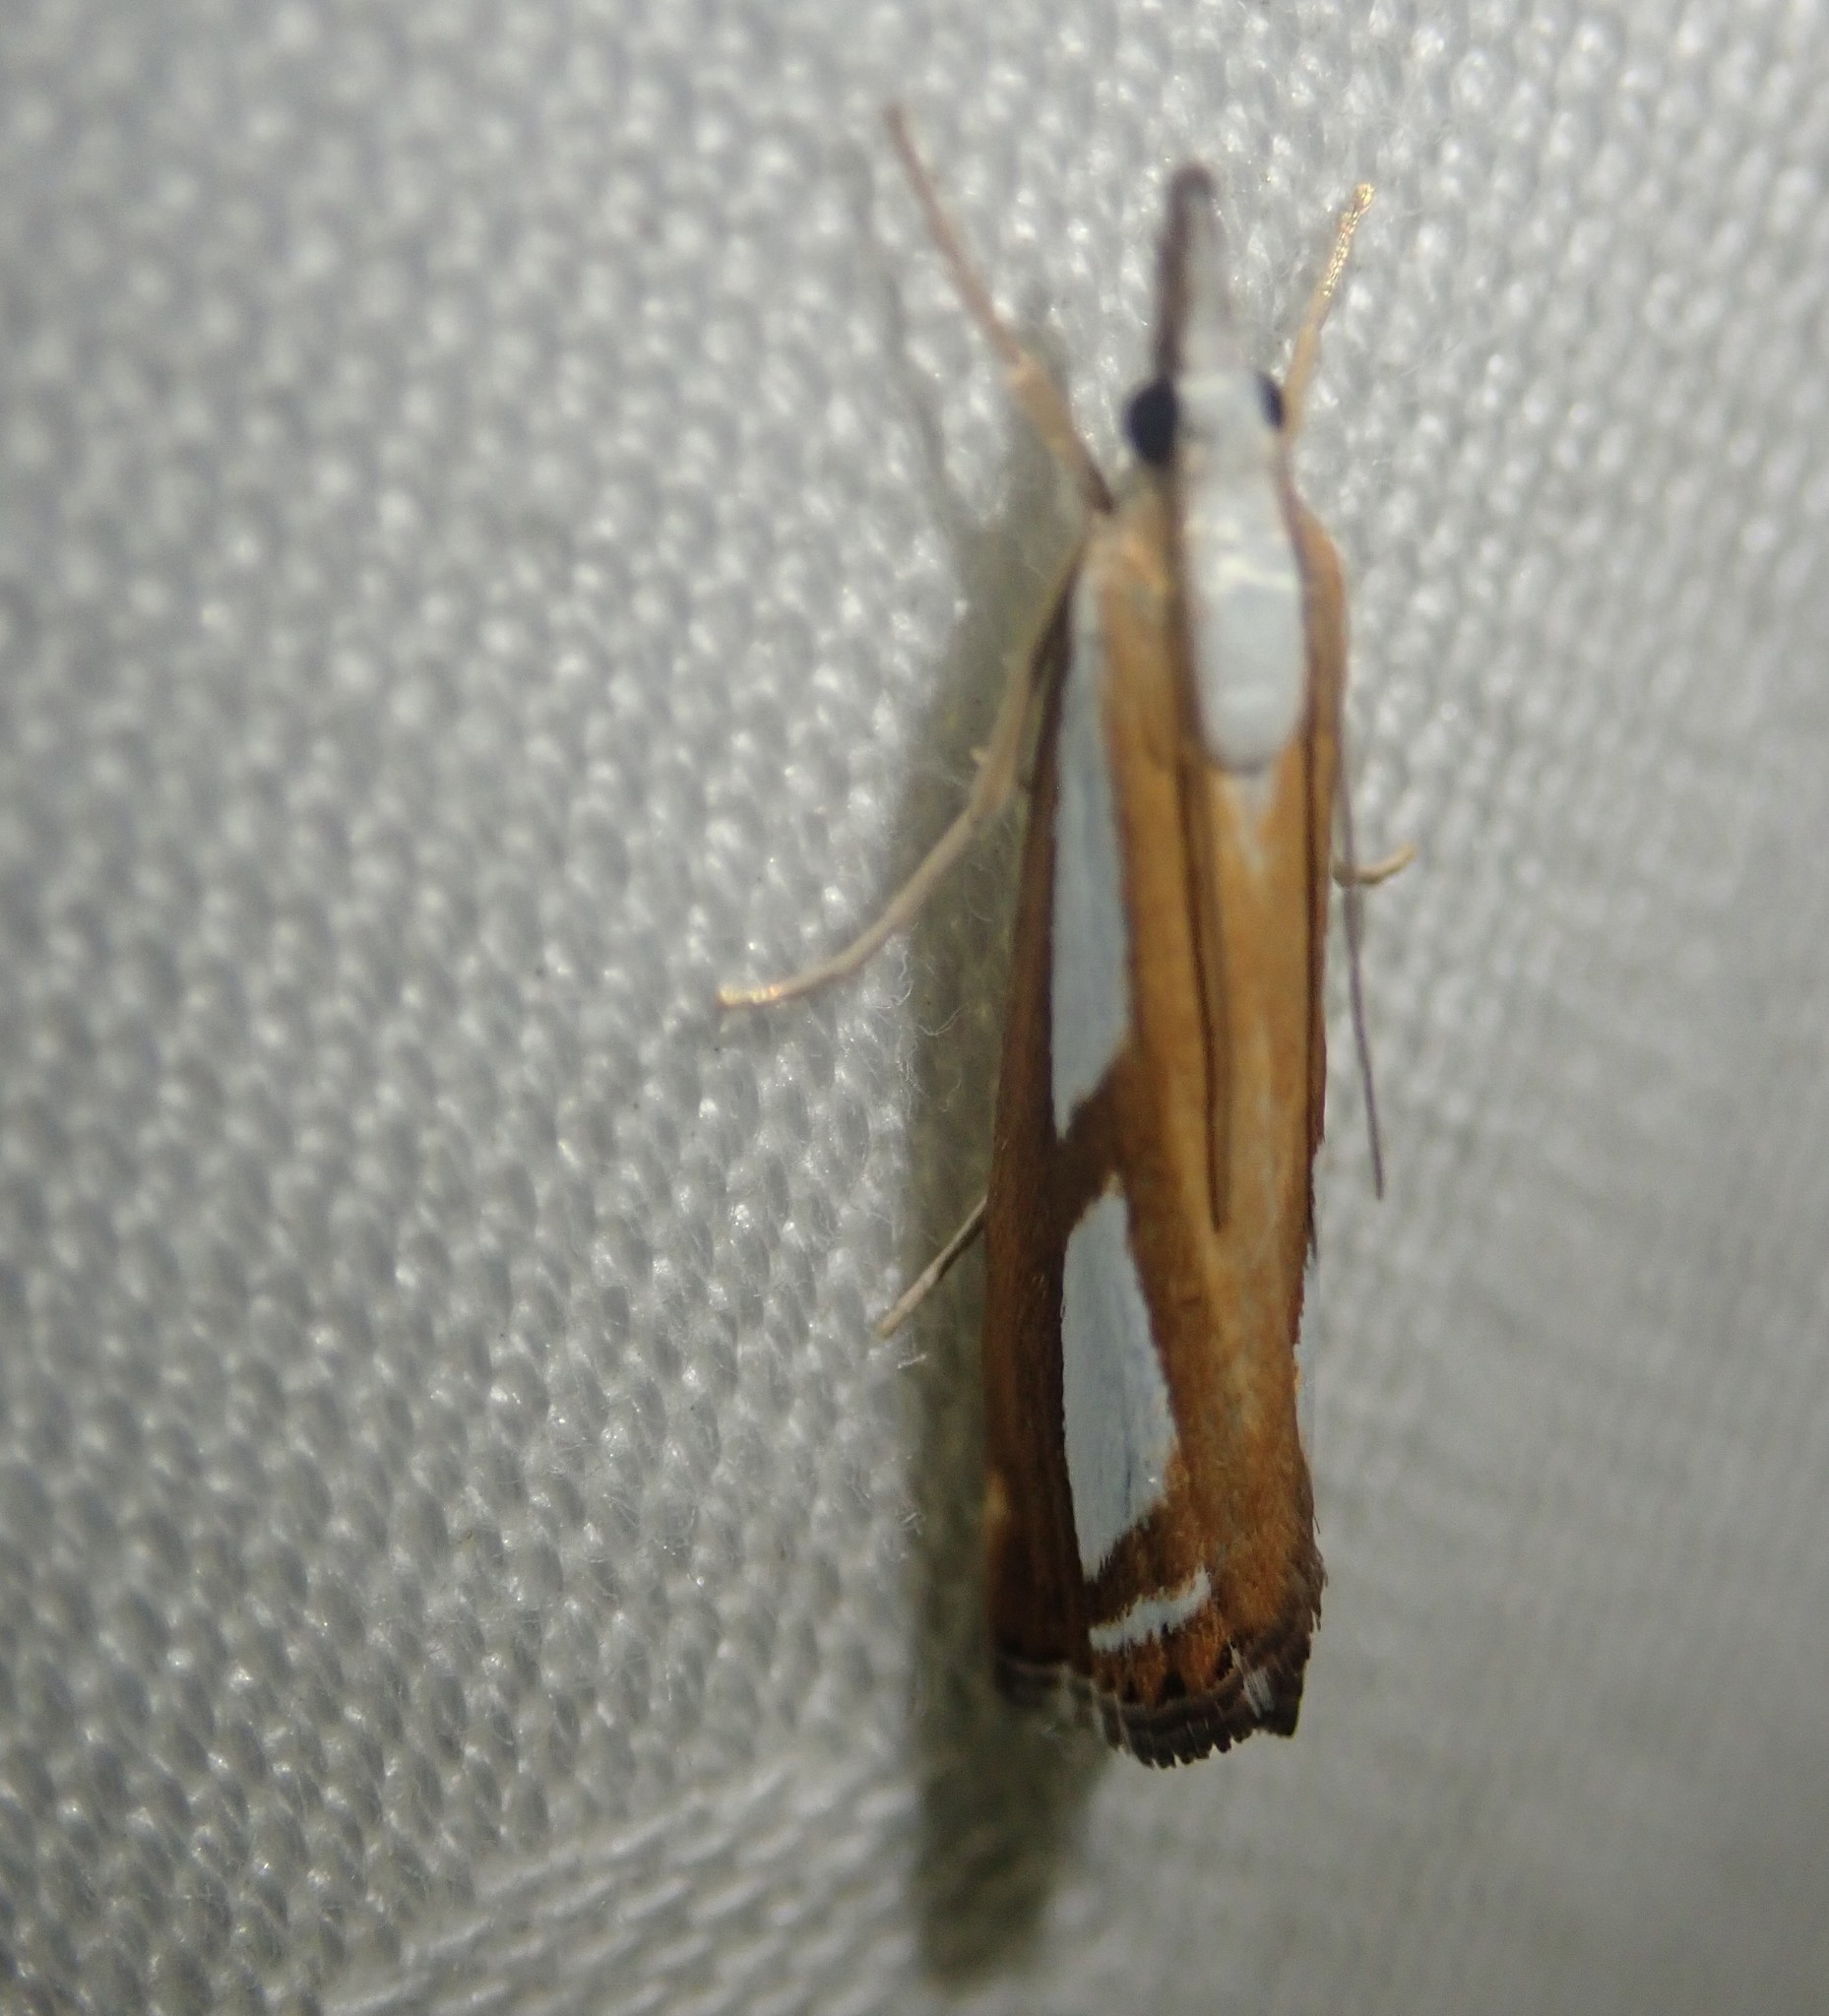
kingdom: Animalia
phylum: Arthropoda
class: Insecta
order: Lepidoptera
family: Crambidae
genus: Catoptria
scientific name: Catoptria
